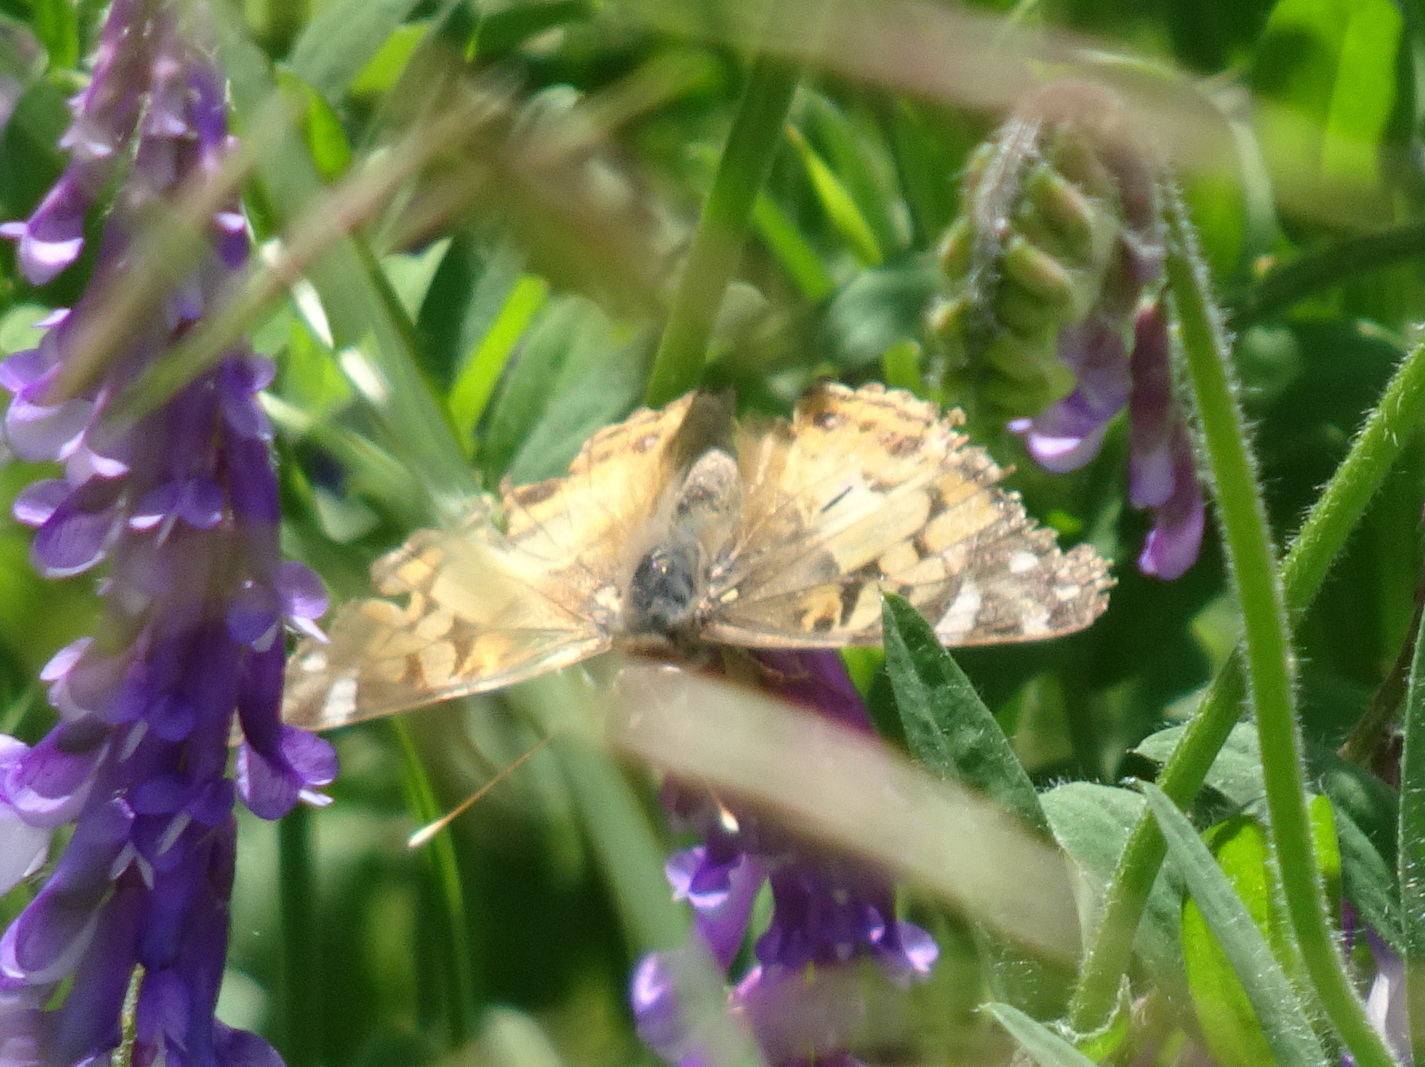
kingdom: Animalia
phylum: Arthropoda
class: Insecta
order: Lepidoptera
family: Nymphalidae
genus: Vanessa
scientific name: Vanessa virginiensis
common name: American lady
